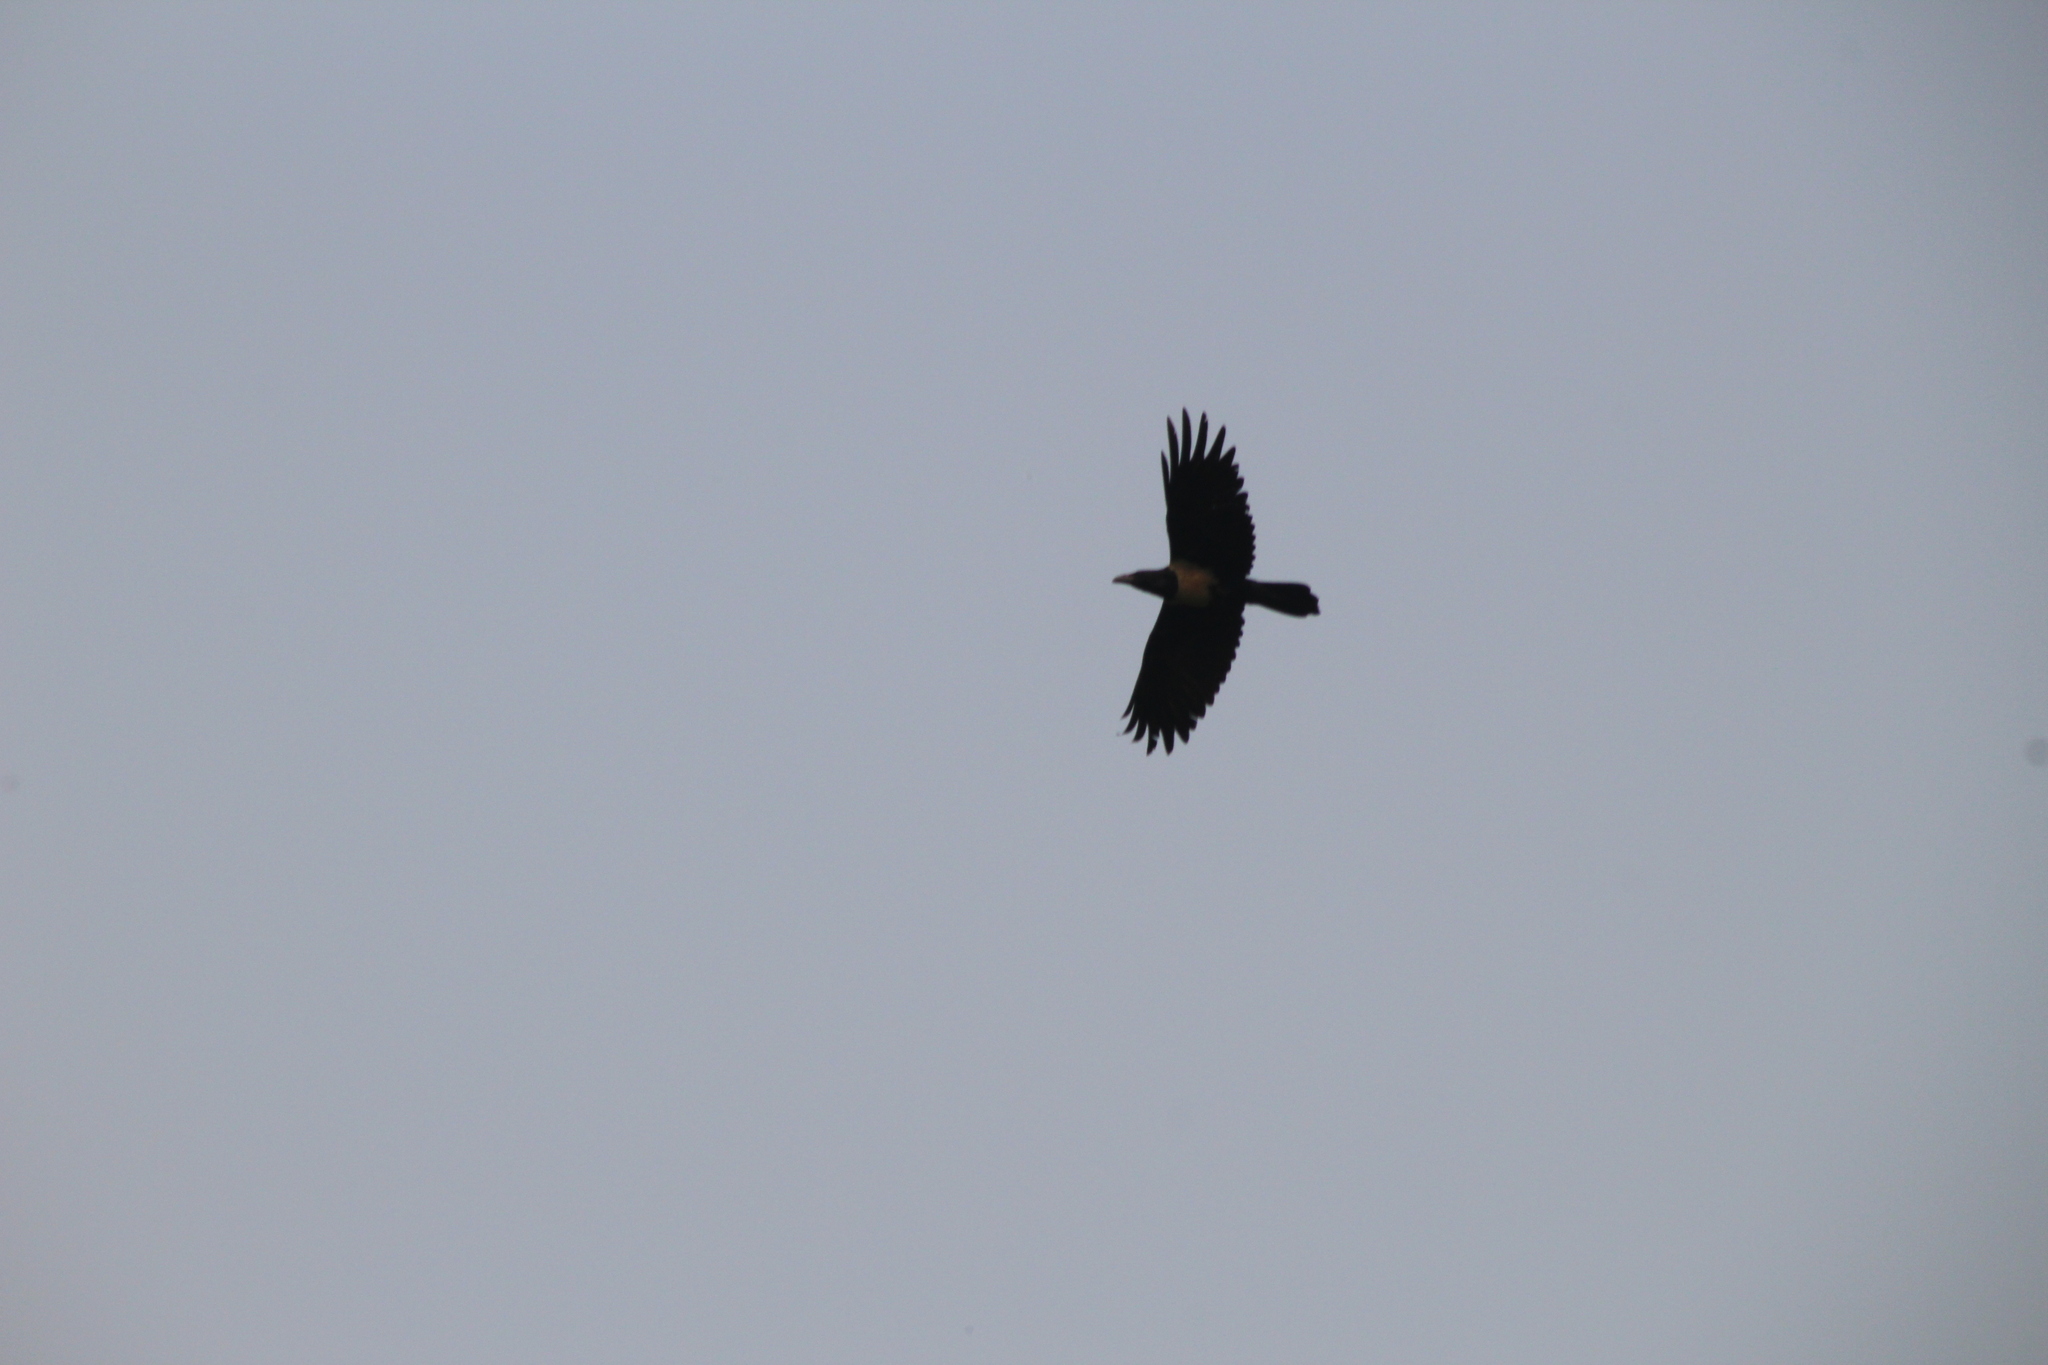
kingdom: Animalia
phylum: Chordata
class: Aves
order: Passeriformes
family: Corvidae
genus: Corvus
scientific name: Corvus albus
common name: Pied crow
